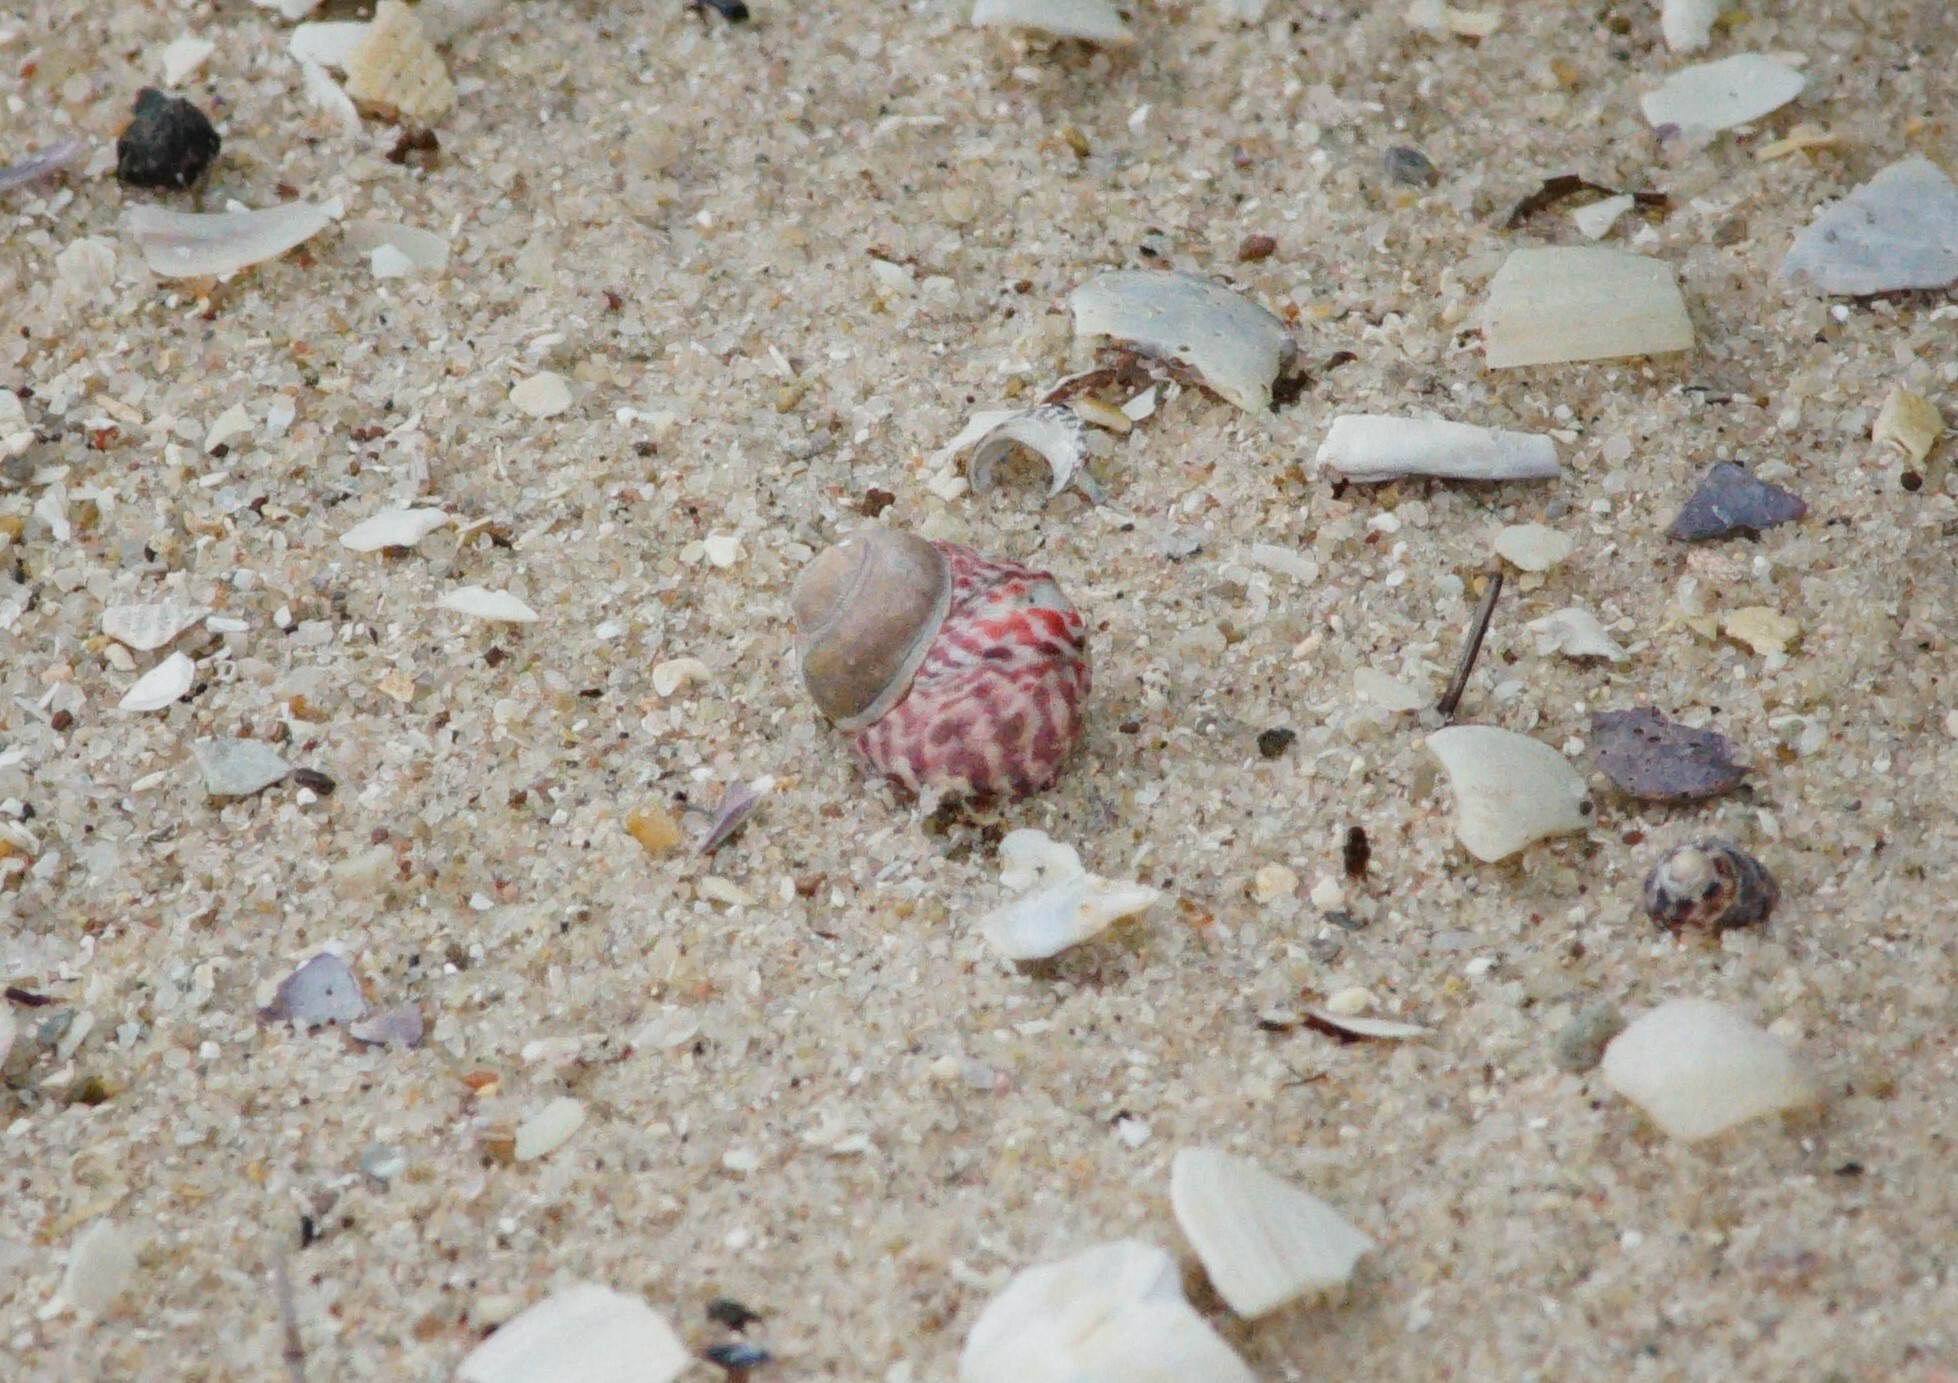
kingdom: Animalia
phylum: Mollusca
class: Gastropoda
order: Trochida
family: Trochidae
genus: Austrocochlea
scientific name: Austrocochlea porcata
